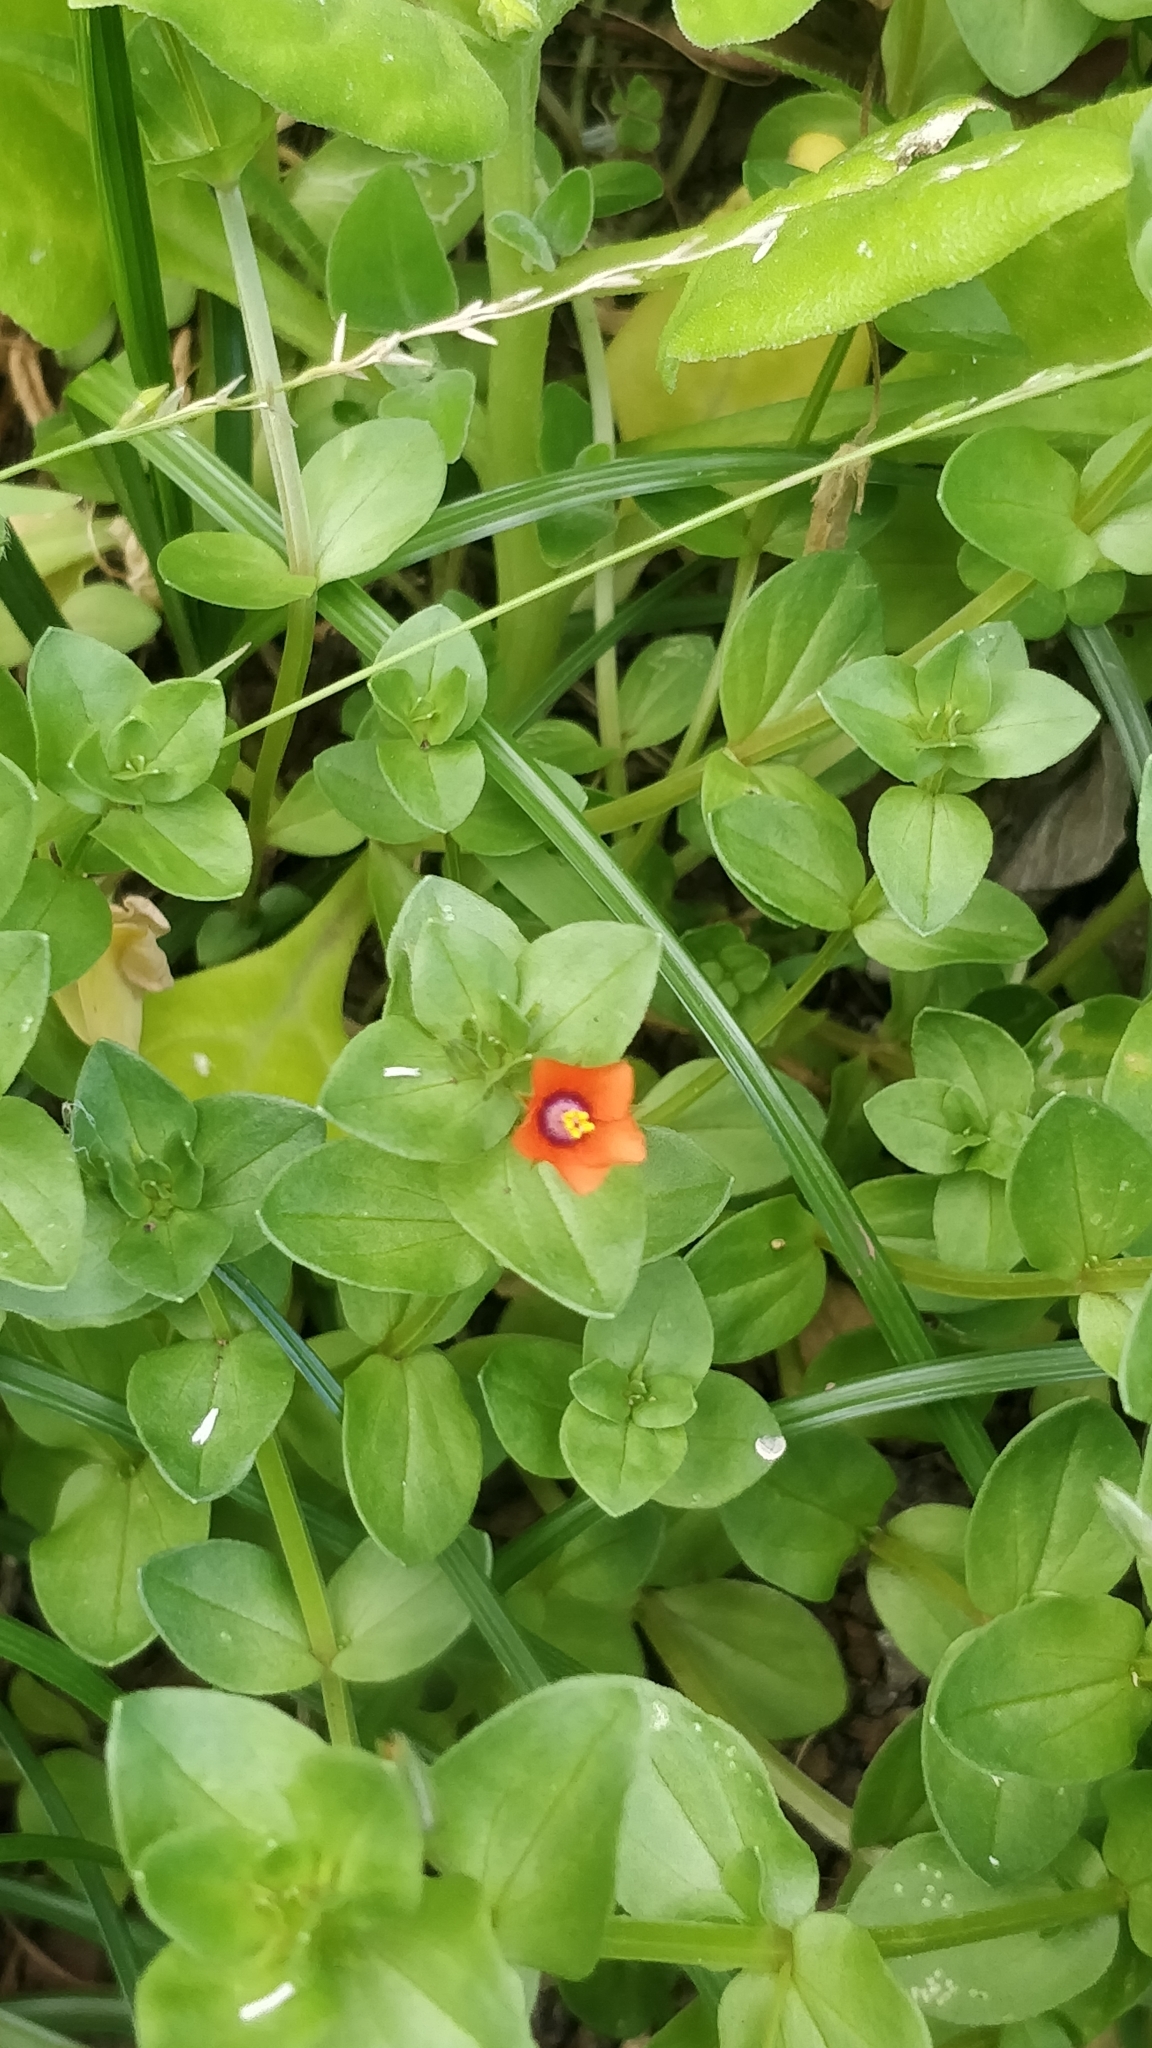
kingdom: Plantae
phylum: Tracheophyta
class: Magnoliopsida
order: Ericales
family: Primulaceae
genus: Lysimachia
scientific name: Lysimachia arvensis
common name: Scarlet pimpernel
